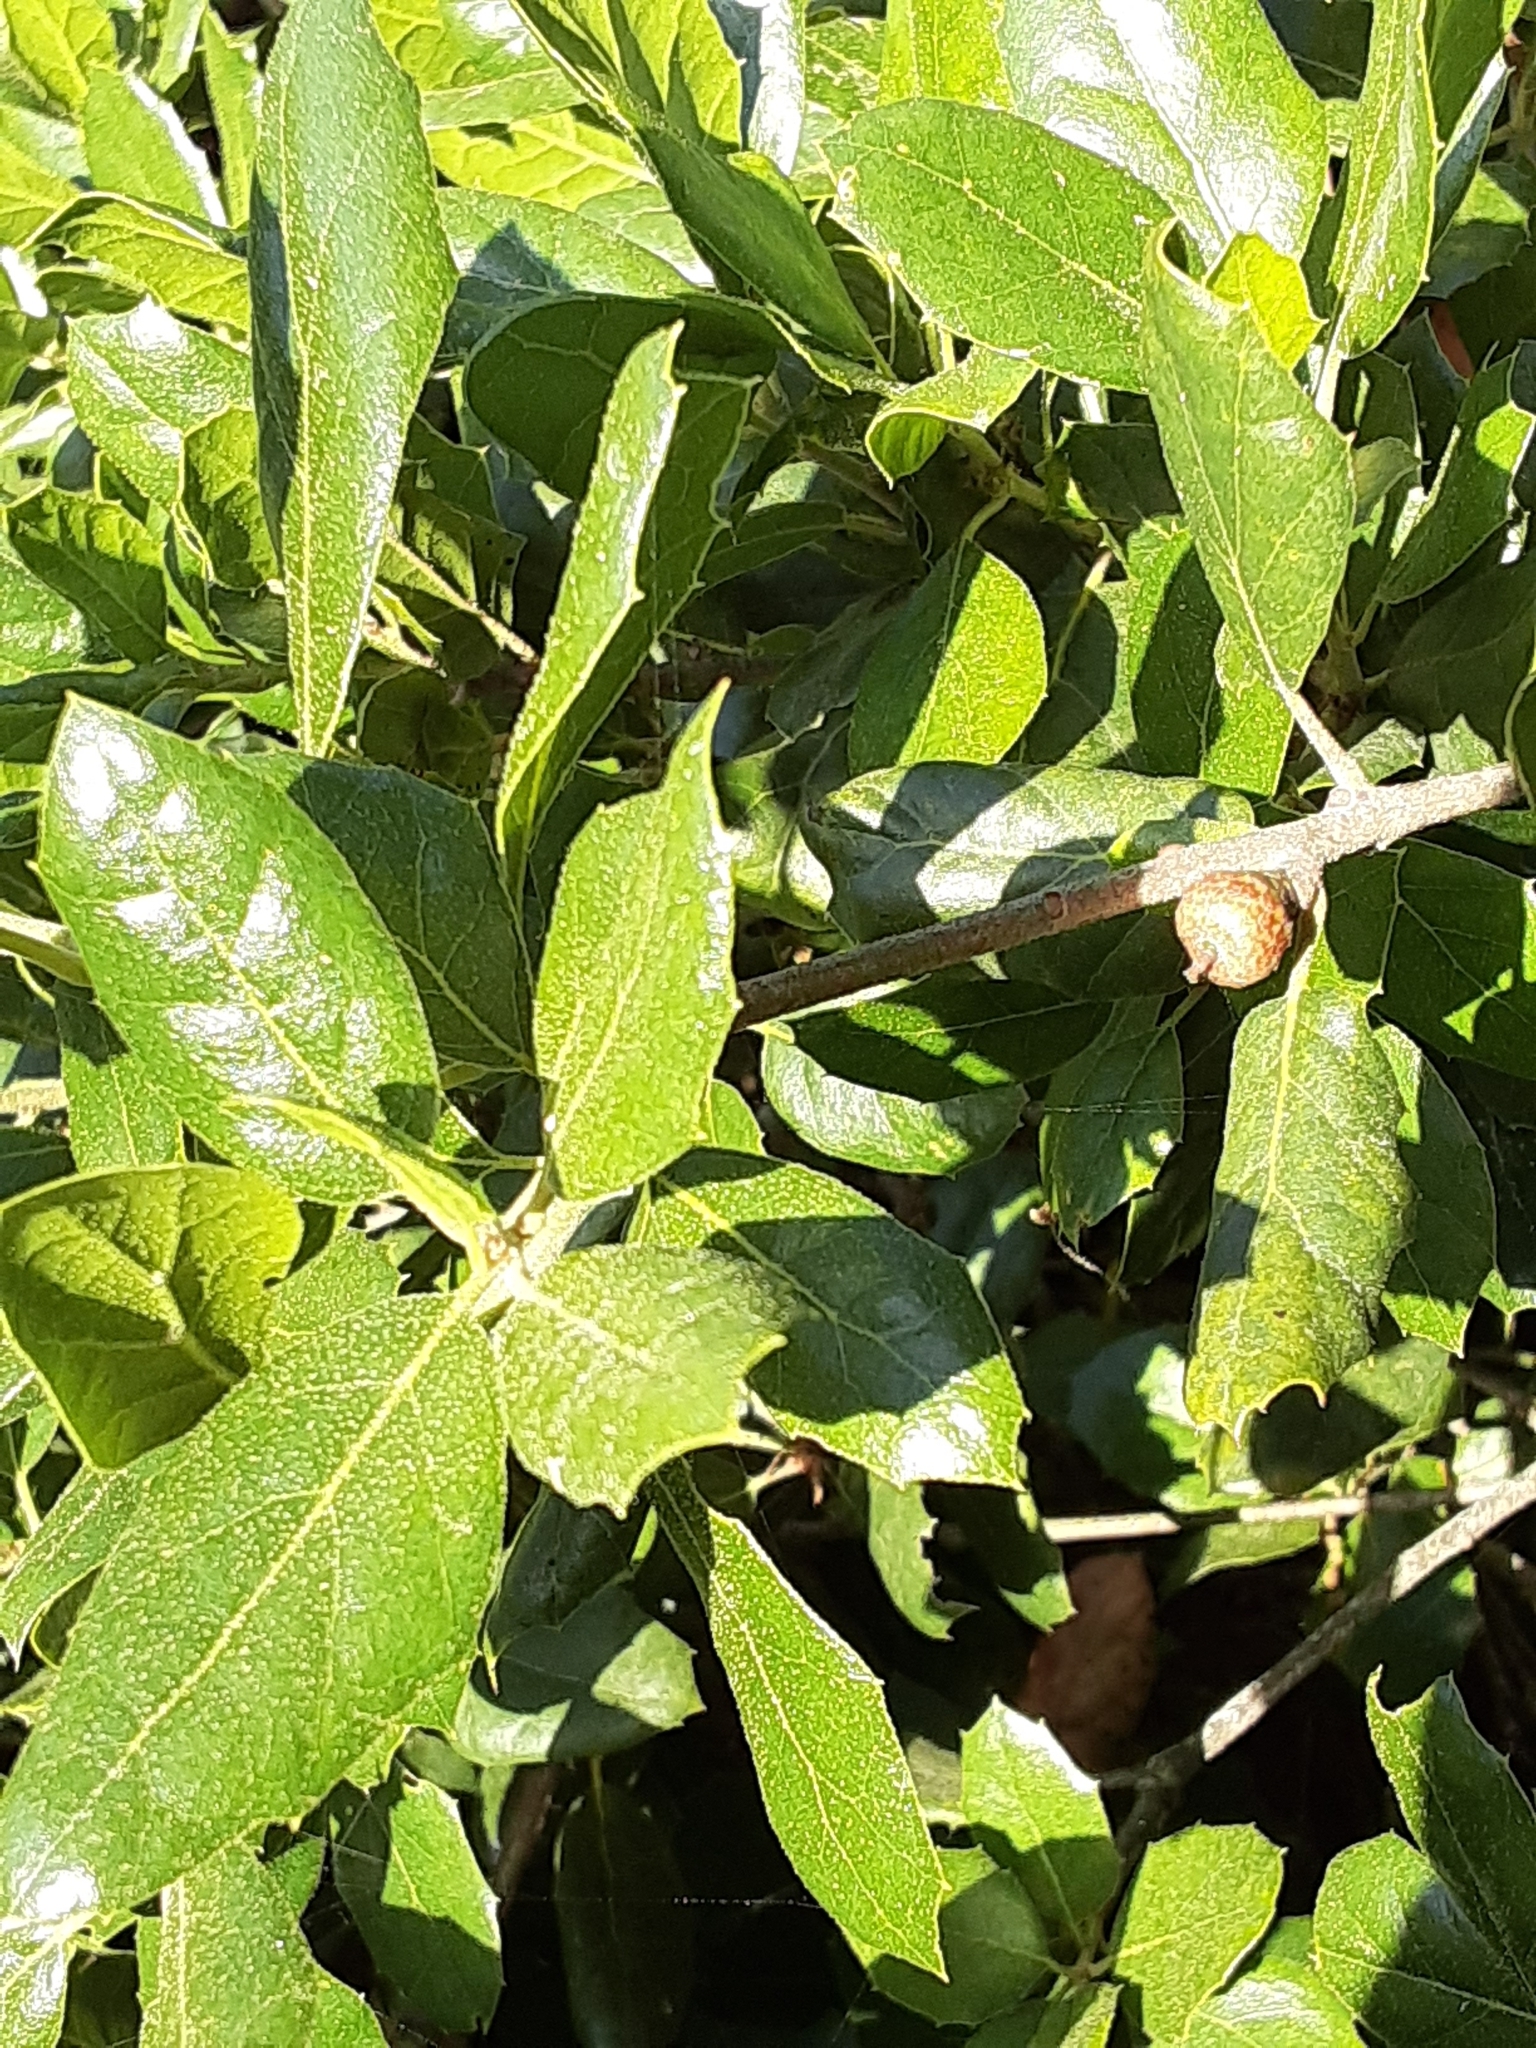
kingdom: Plantae
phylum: Tracheophyta
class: Magnoliopsida
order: Fagales
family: Fagaceae
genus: Quercus
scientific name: Quercus agrifolia
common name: California live oak
